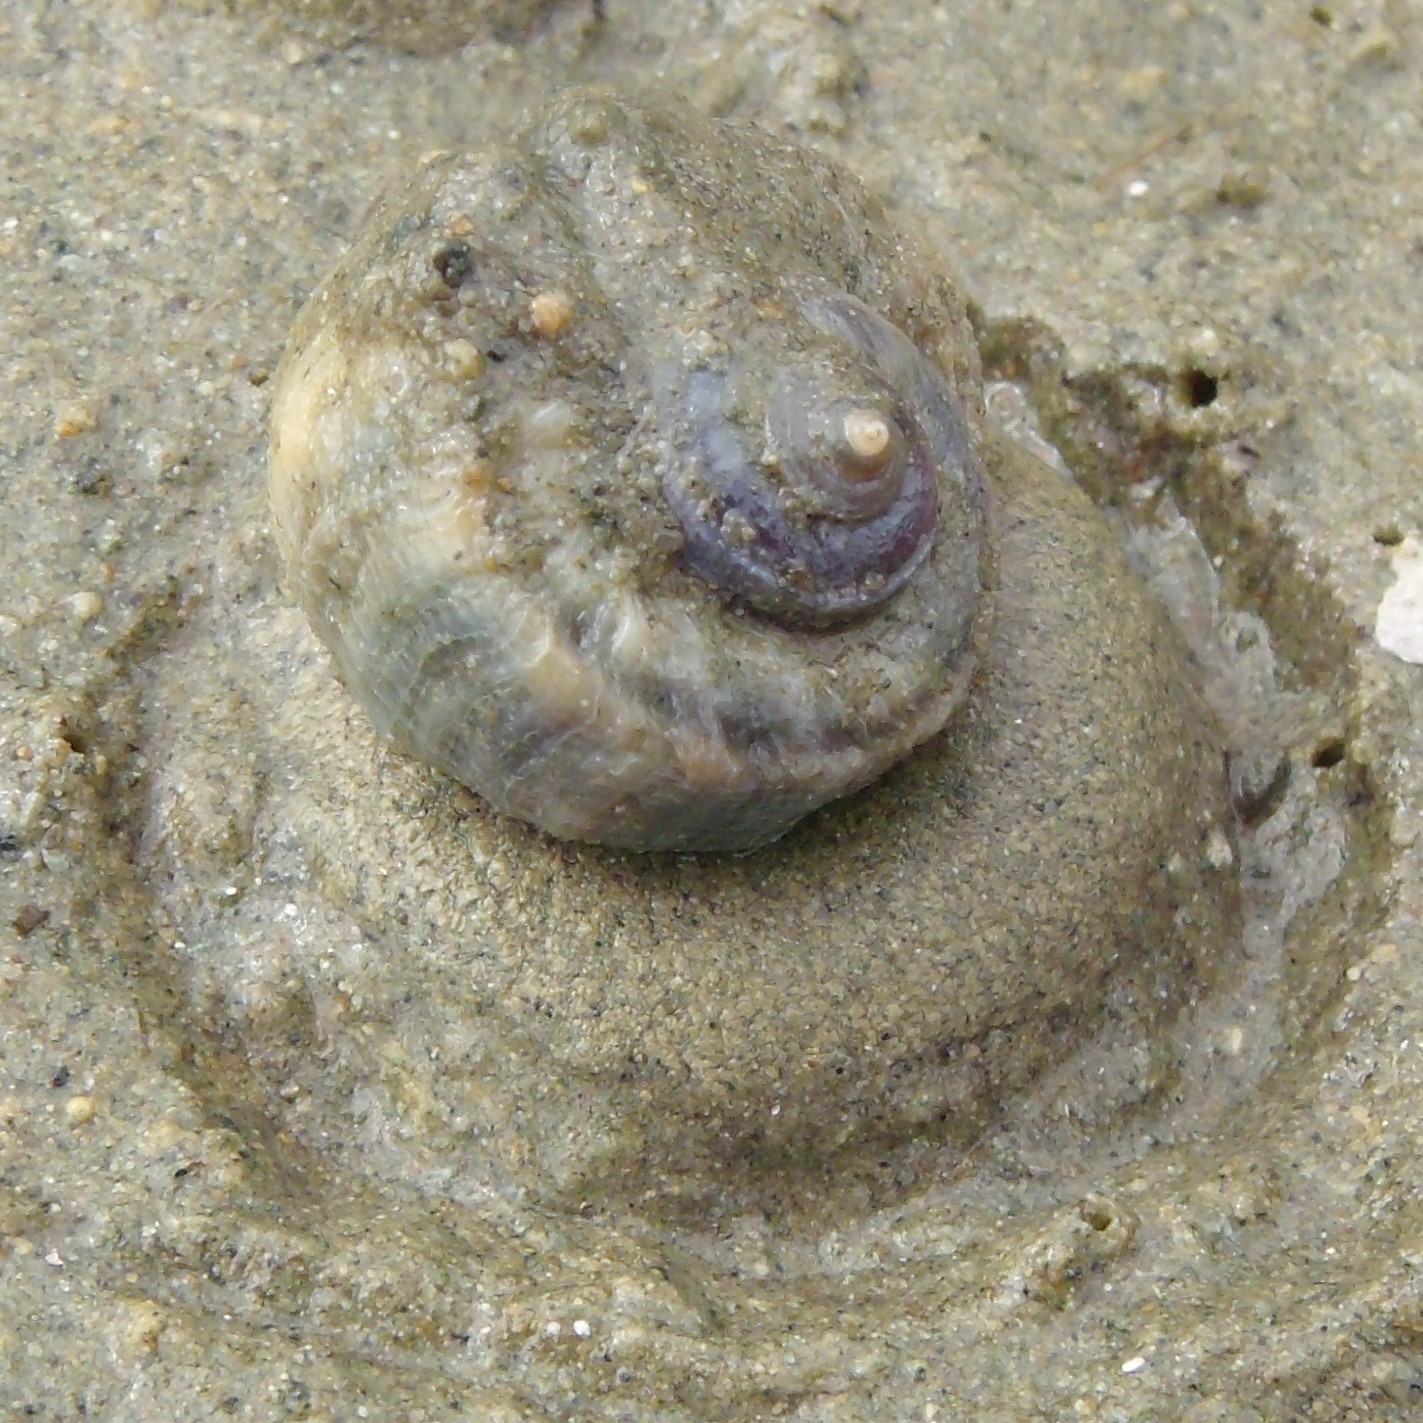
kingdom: Animalia
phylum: Mollusca
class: Gastropoda
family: Amphibolidae
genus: Amphibola
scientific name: Amphibola crenata
